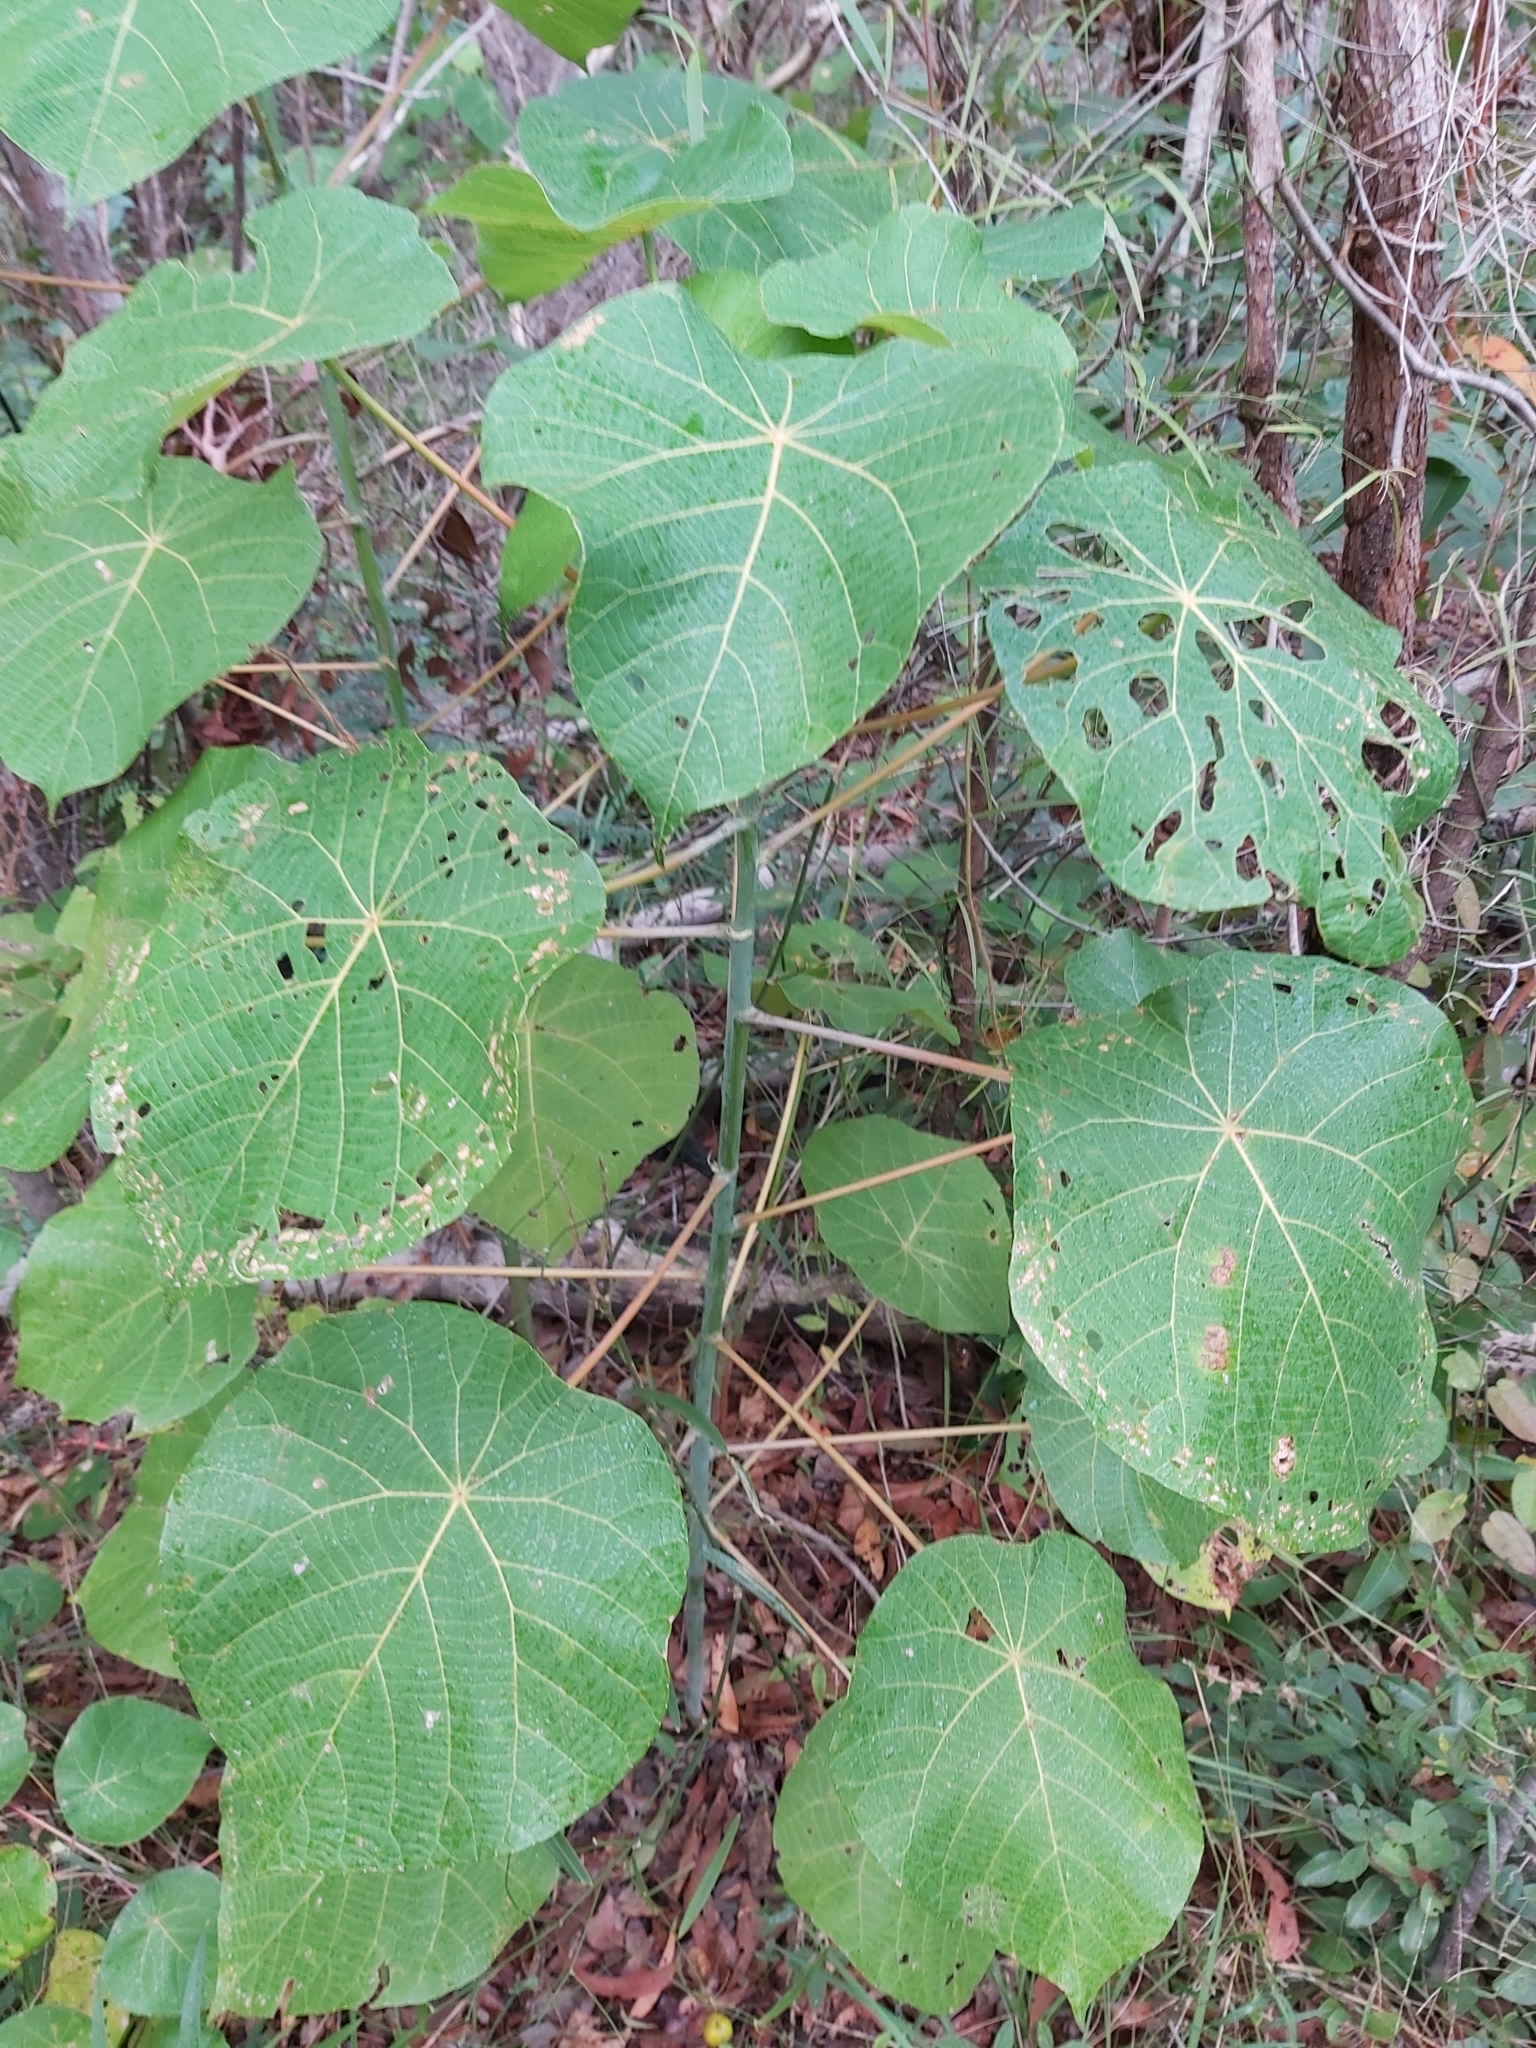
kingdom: Plantae
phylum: Tracheophyta
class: Magnoliopsida
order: Malpighiales
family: Euphorbiaceae
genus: Macaranga
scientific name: Macaranga tanarius
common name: Parasol leaf tree
